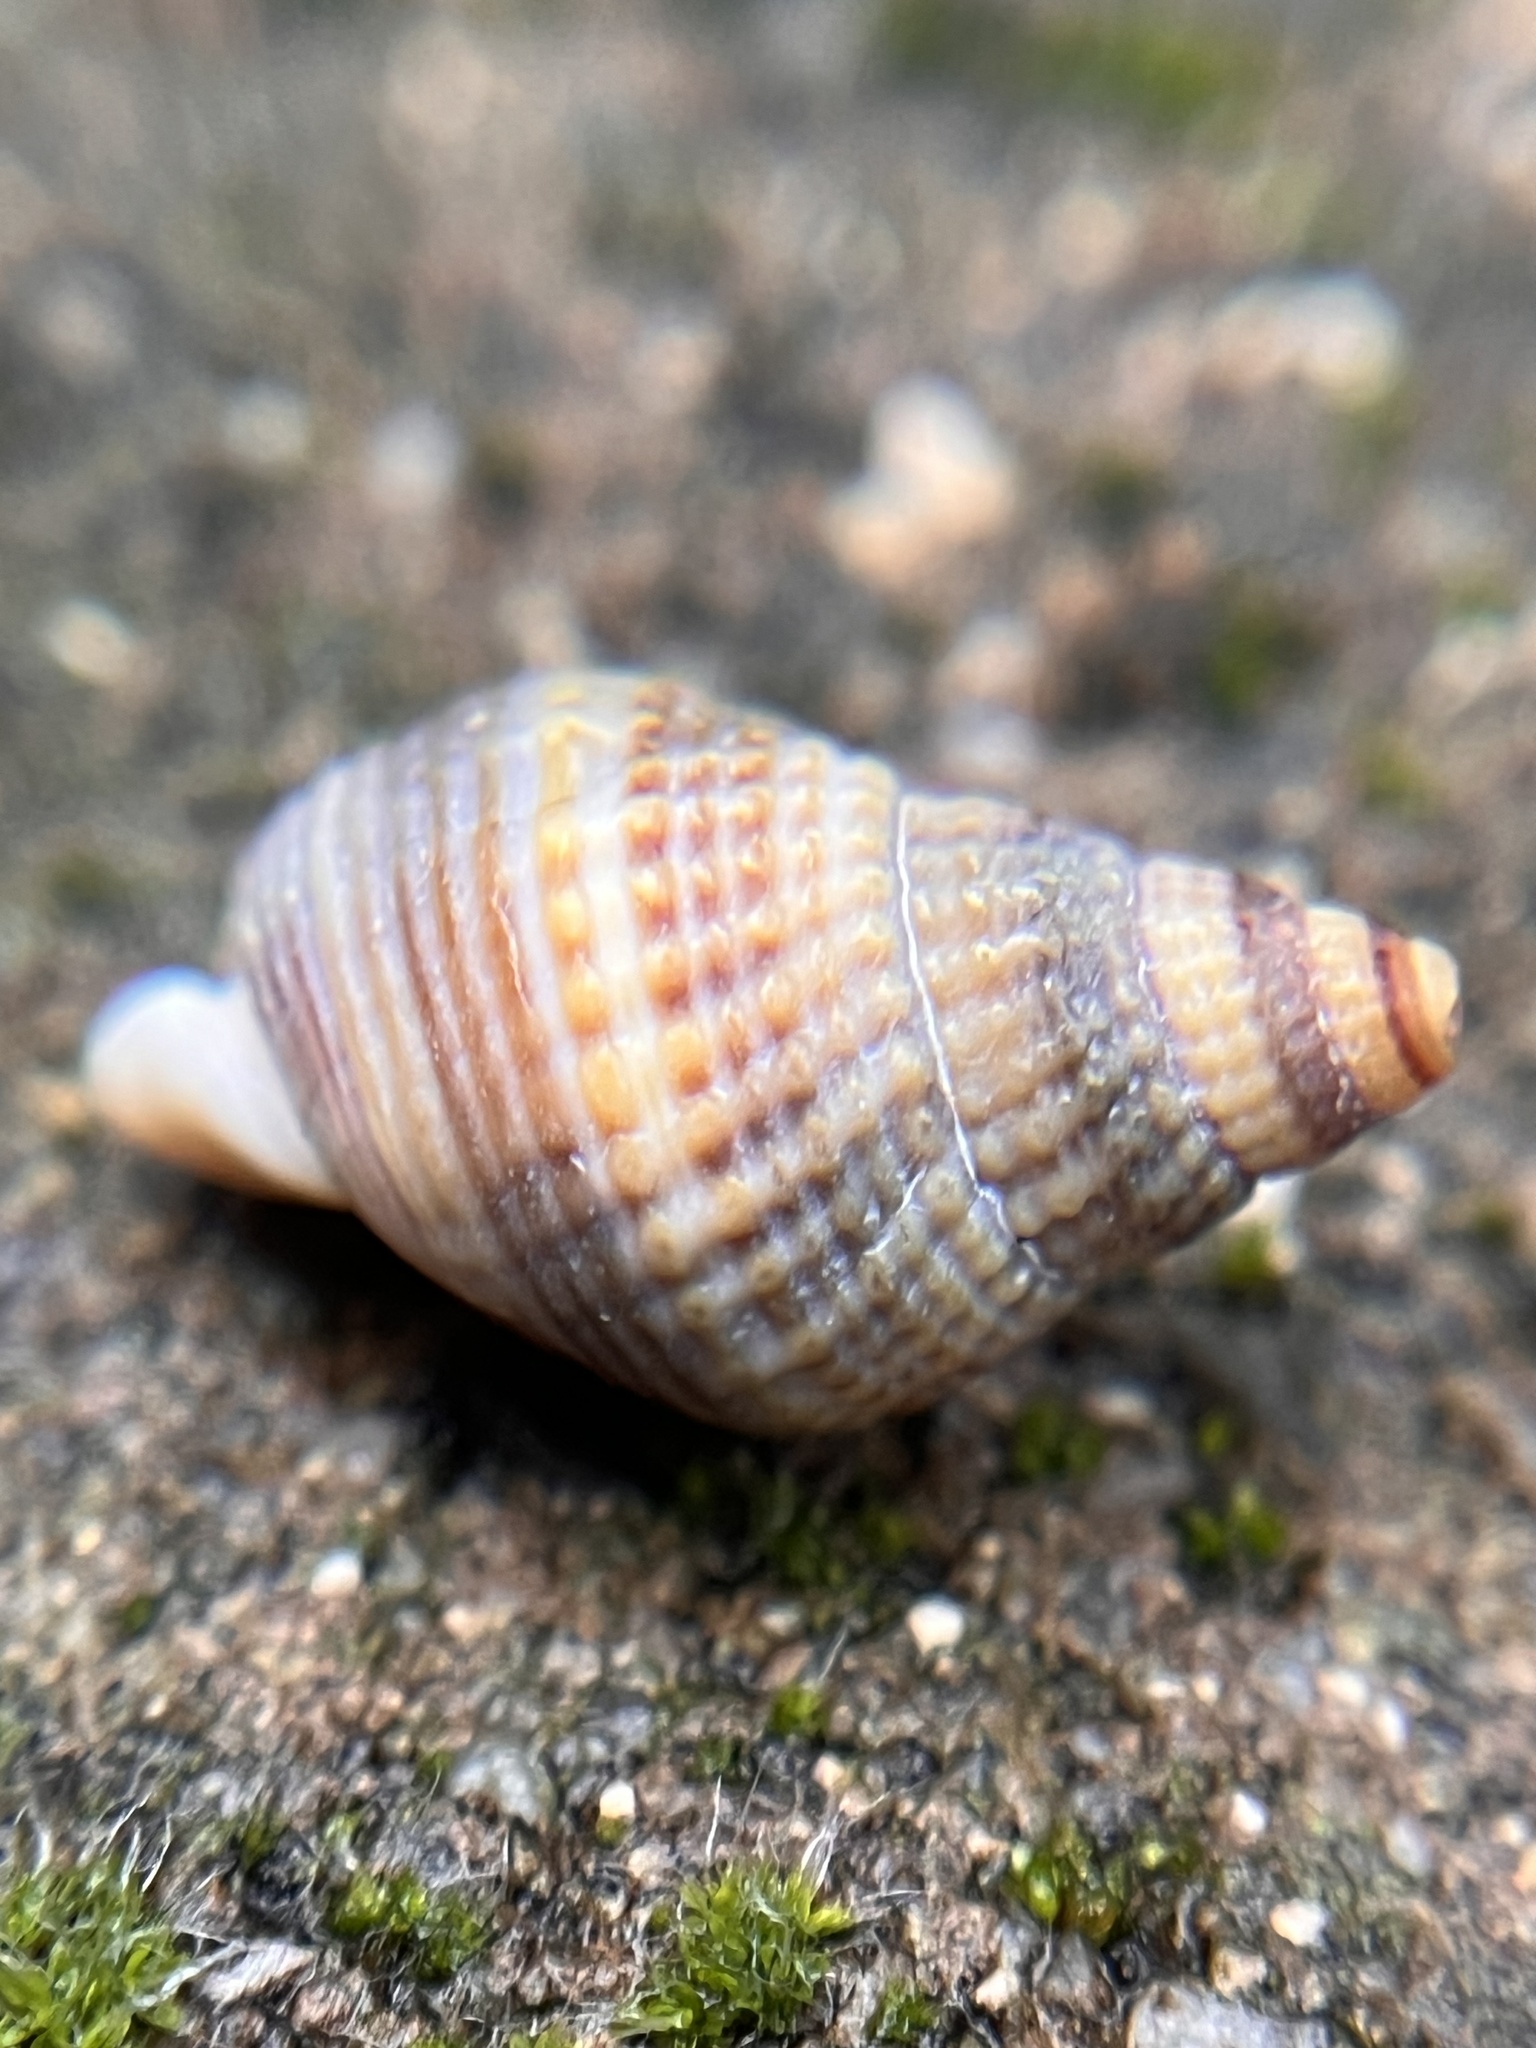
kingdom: Animalia
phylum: Mollusca
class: Gastropoda
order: Neogastropoda
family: Nassariidae
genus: Caesia
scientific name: Caesia fossata
